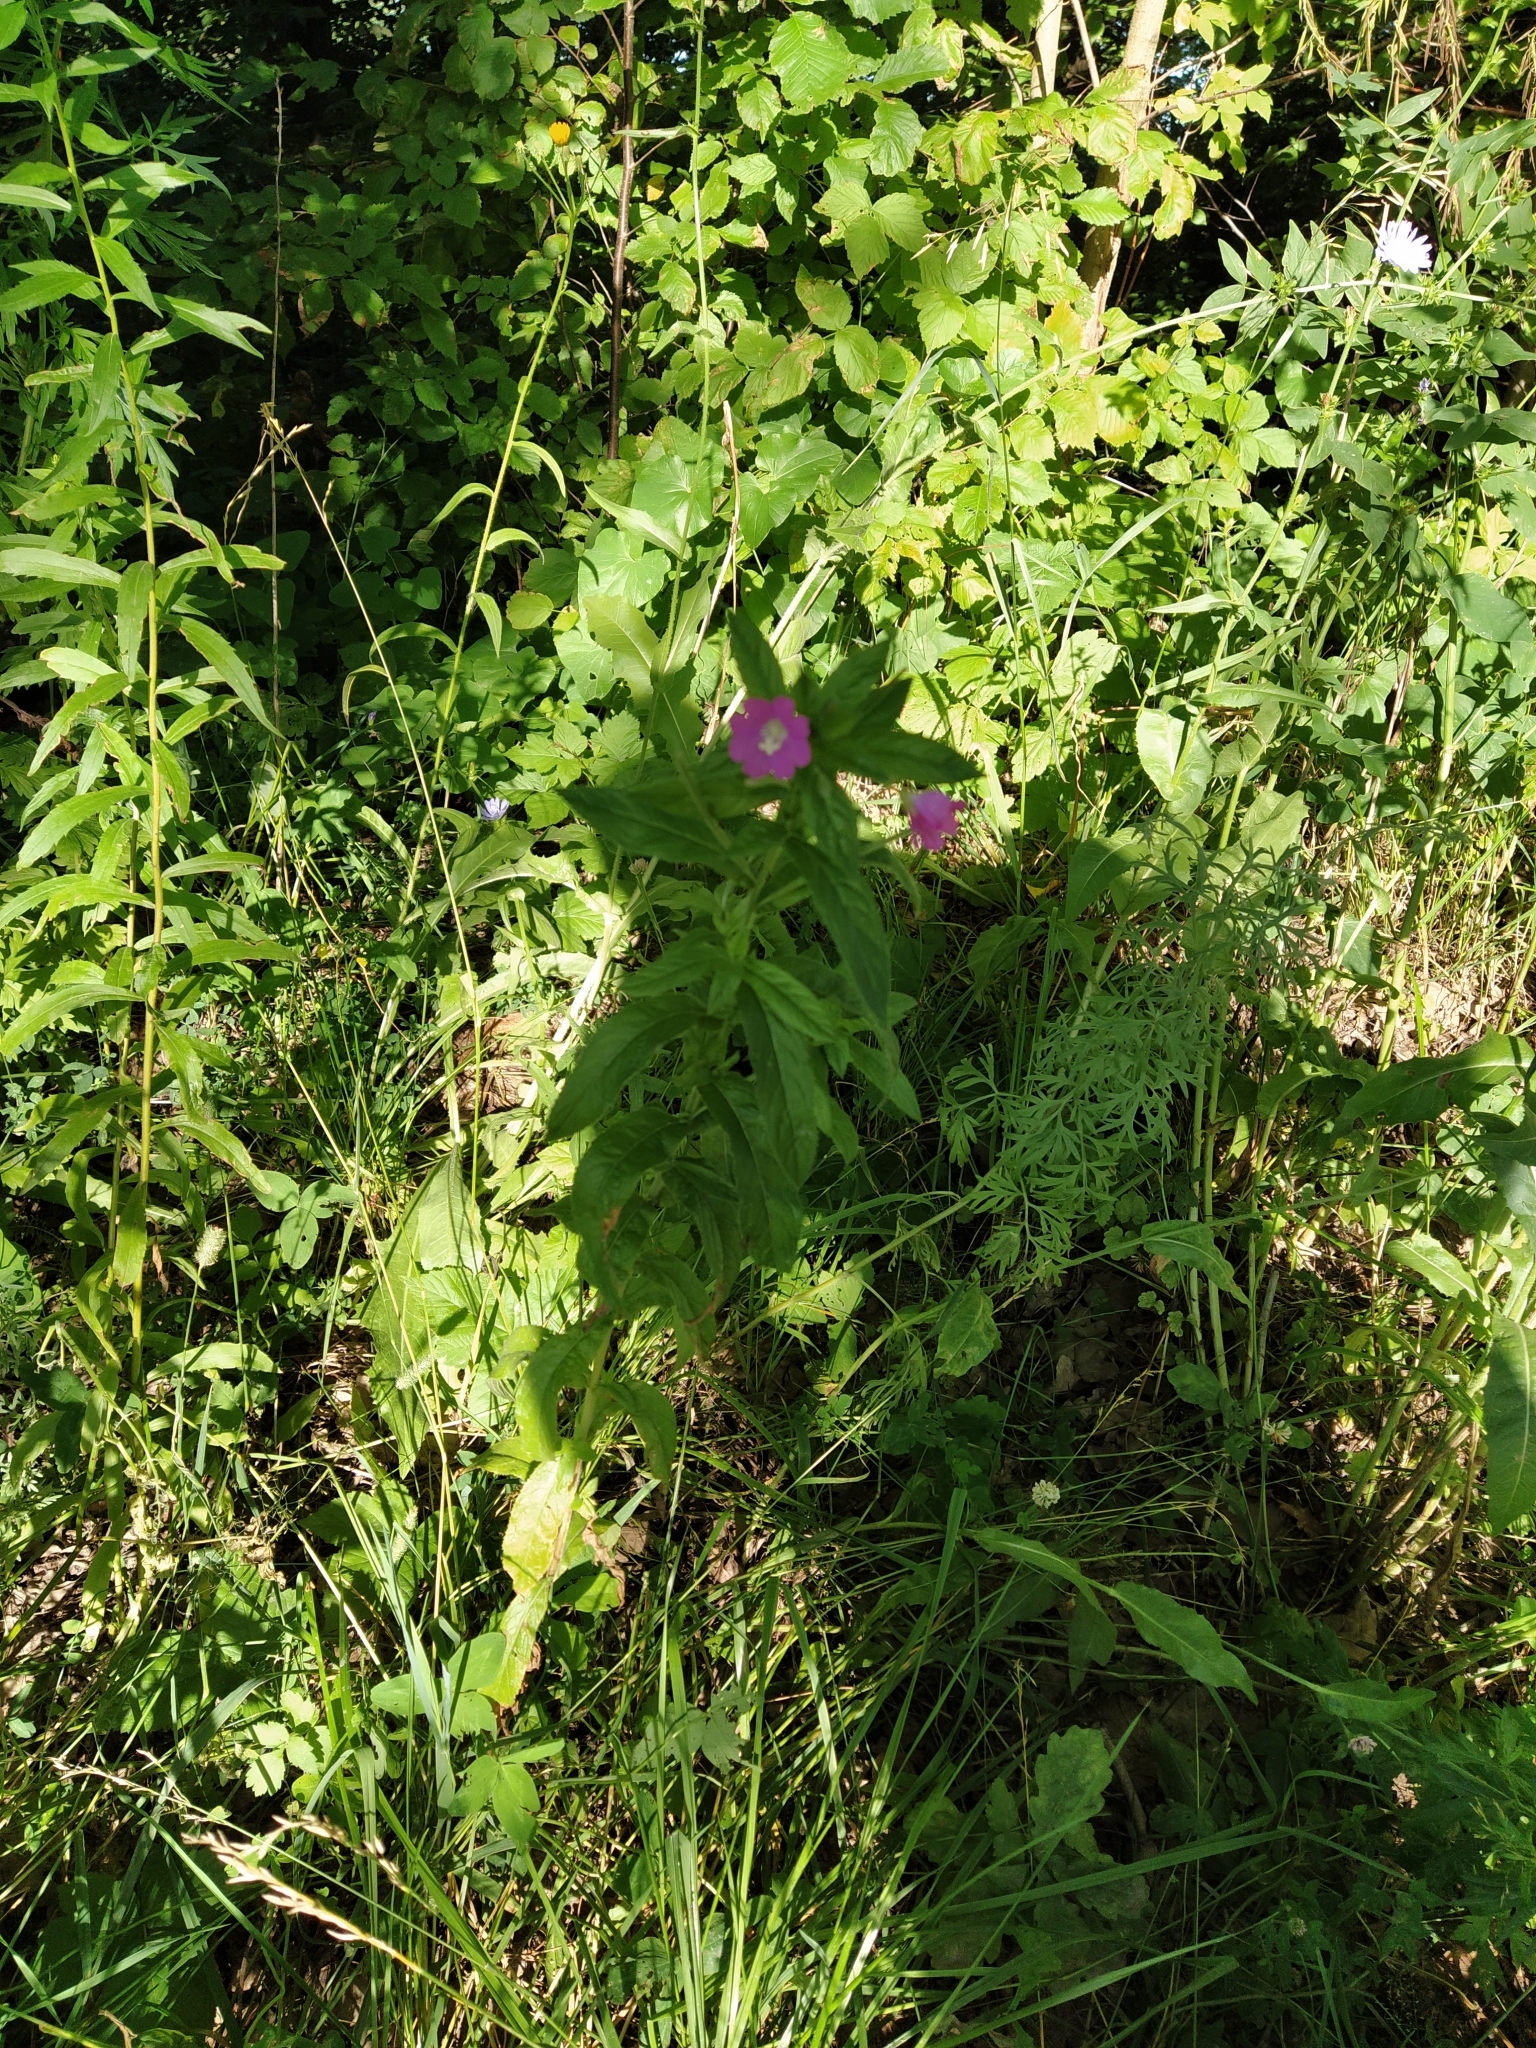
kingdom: Plantae
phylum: Tracheophyta
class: Magnoliopsida
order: Myrtales
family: Onagraceae
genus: Epilobium
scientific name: Epilobium hirsutum
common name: Great willowherb
